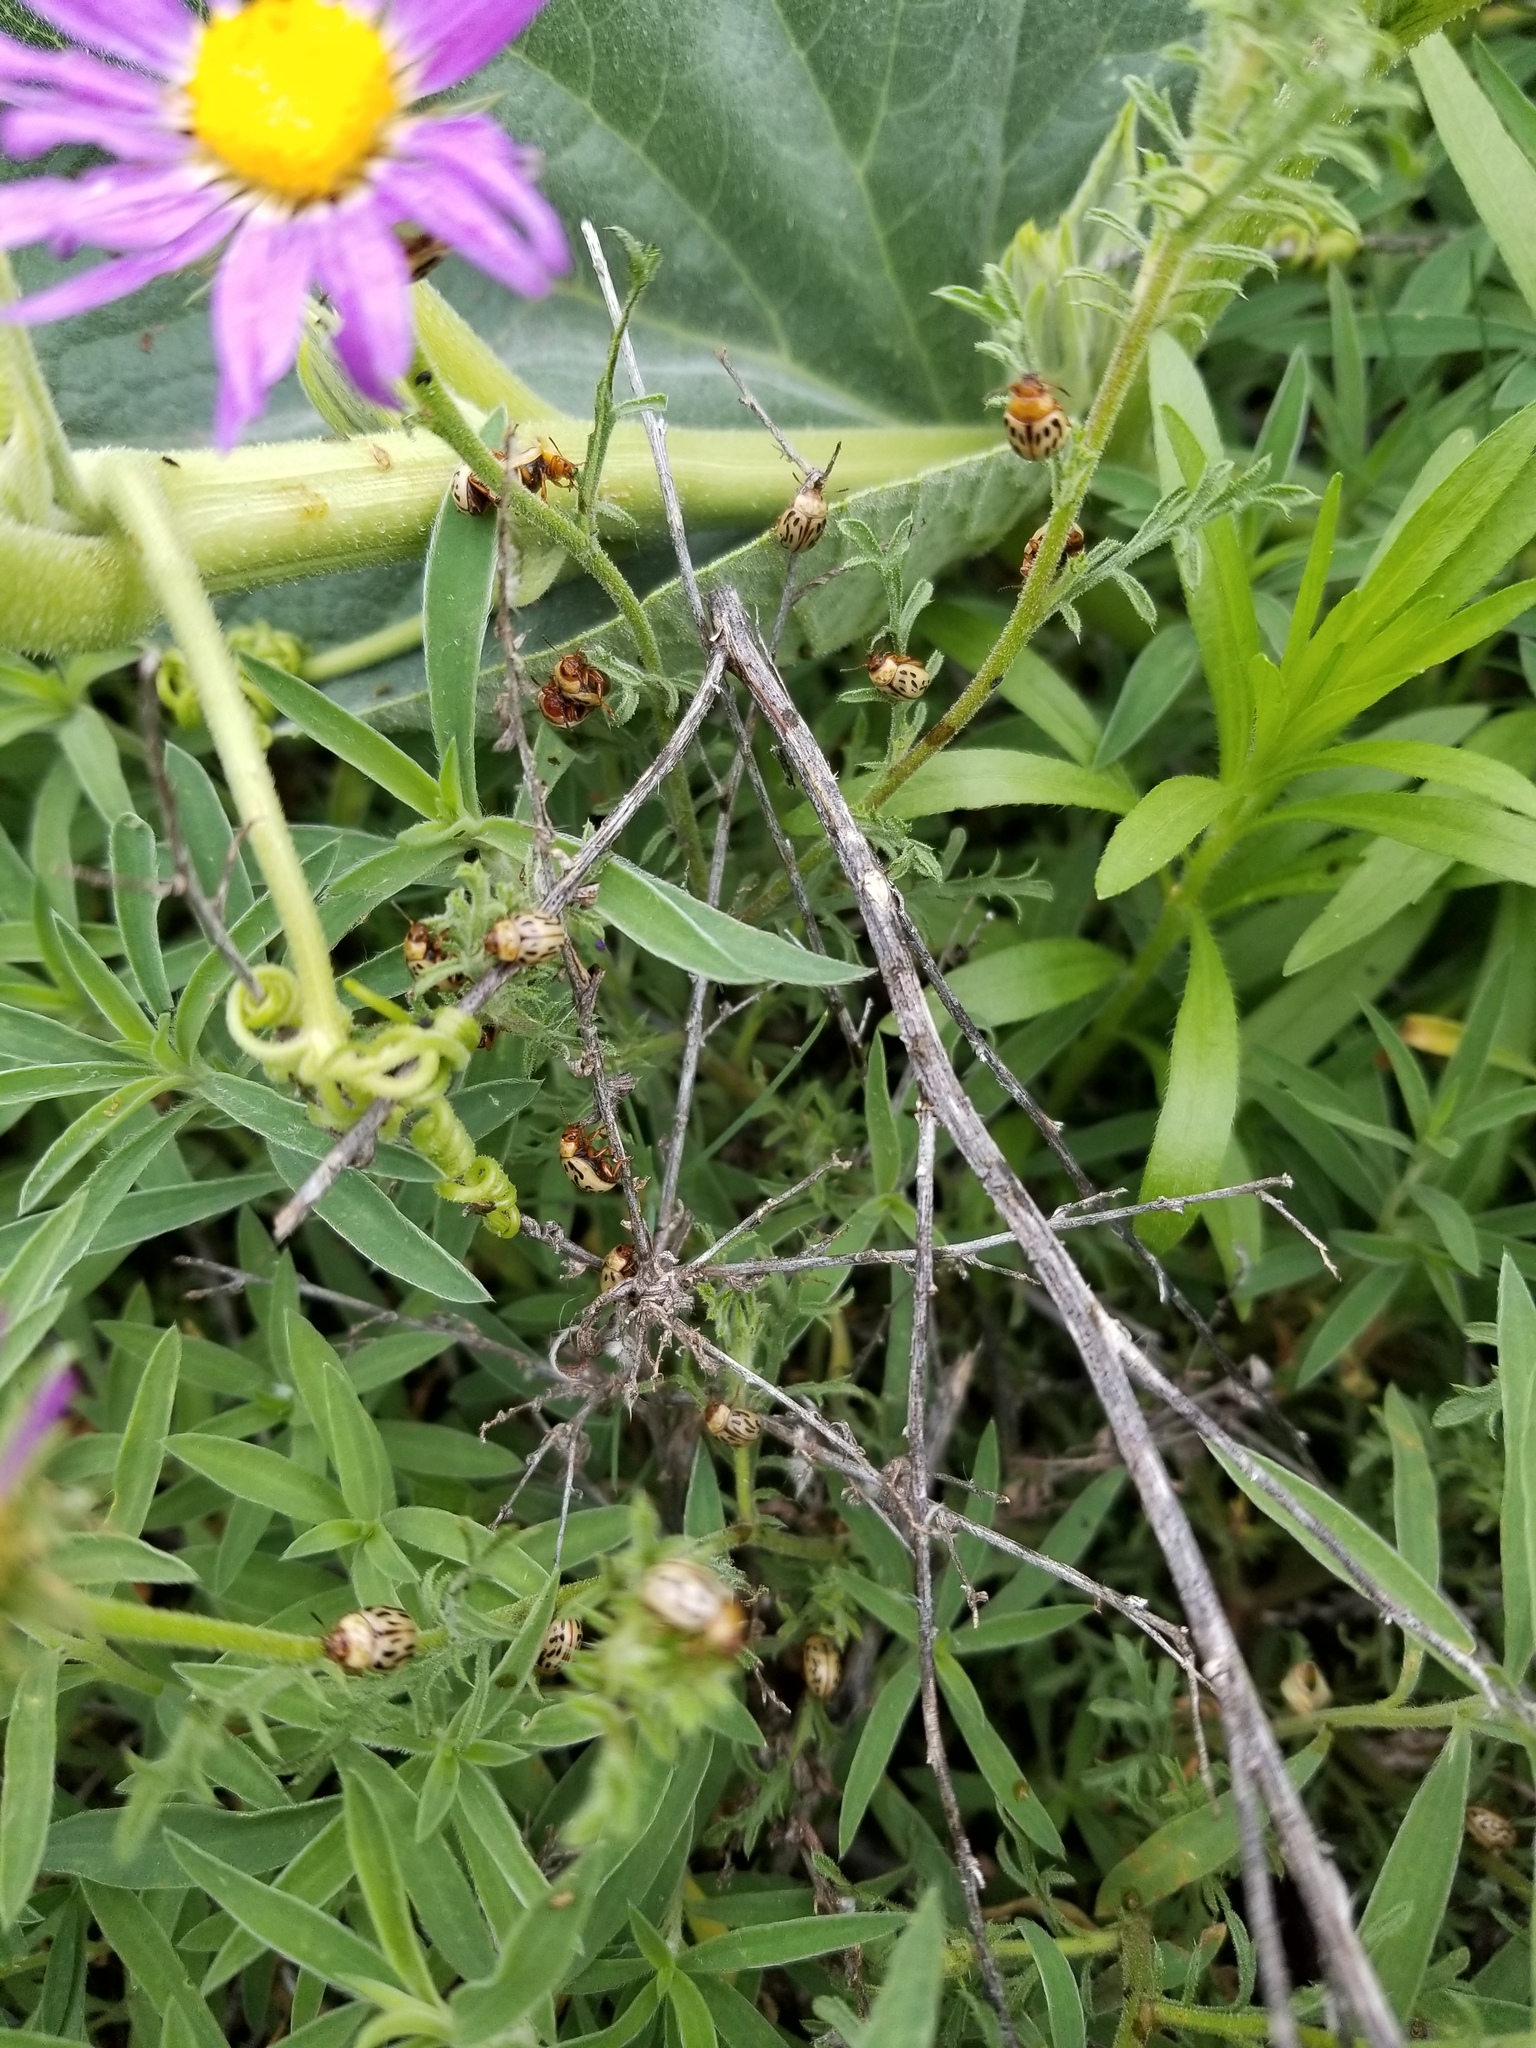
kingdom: Animalia
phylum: Arthropoda
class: Insecta
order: Coleoptera
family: Chrysomelidae
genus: Calligrapha
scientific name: Calligrapha
